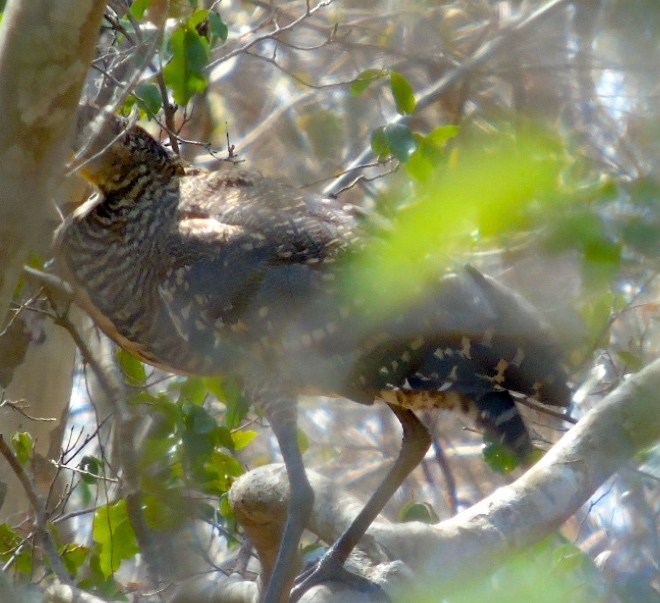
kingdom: Animalia
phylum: Chordata
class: Aves
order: Pelecaniformes
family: Ardeidae
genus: Tigrisoma
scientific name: Tigrisoma mexicanum
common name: Bare-throated tiger-heron
